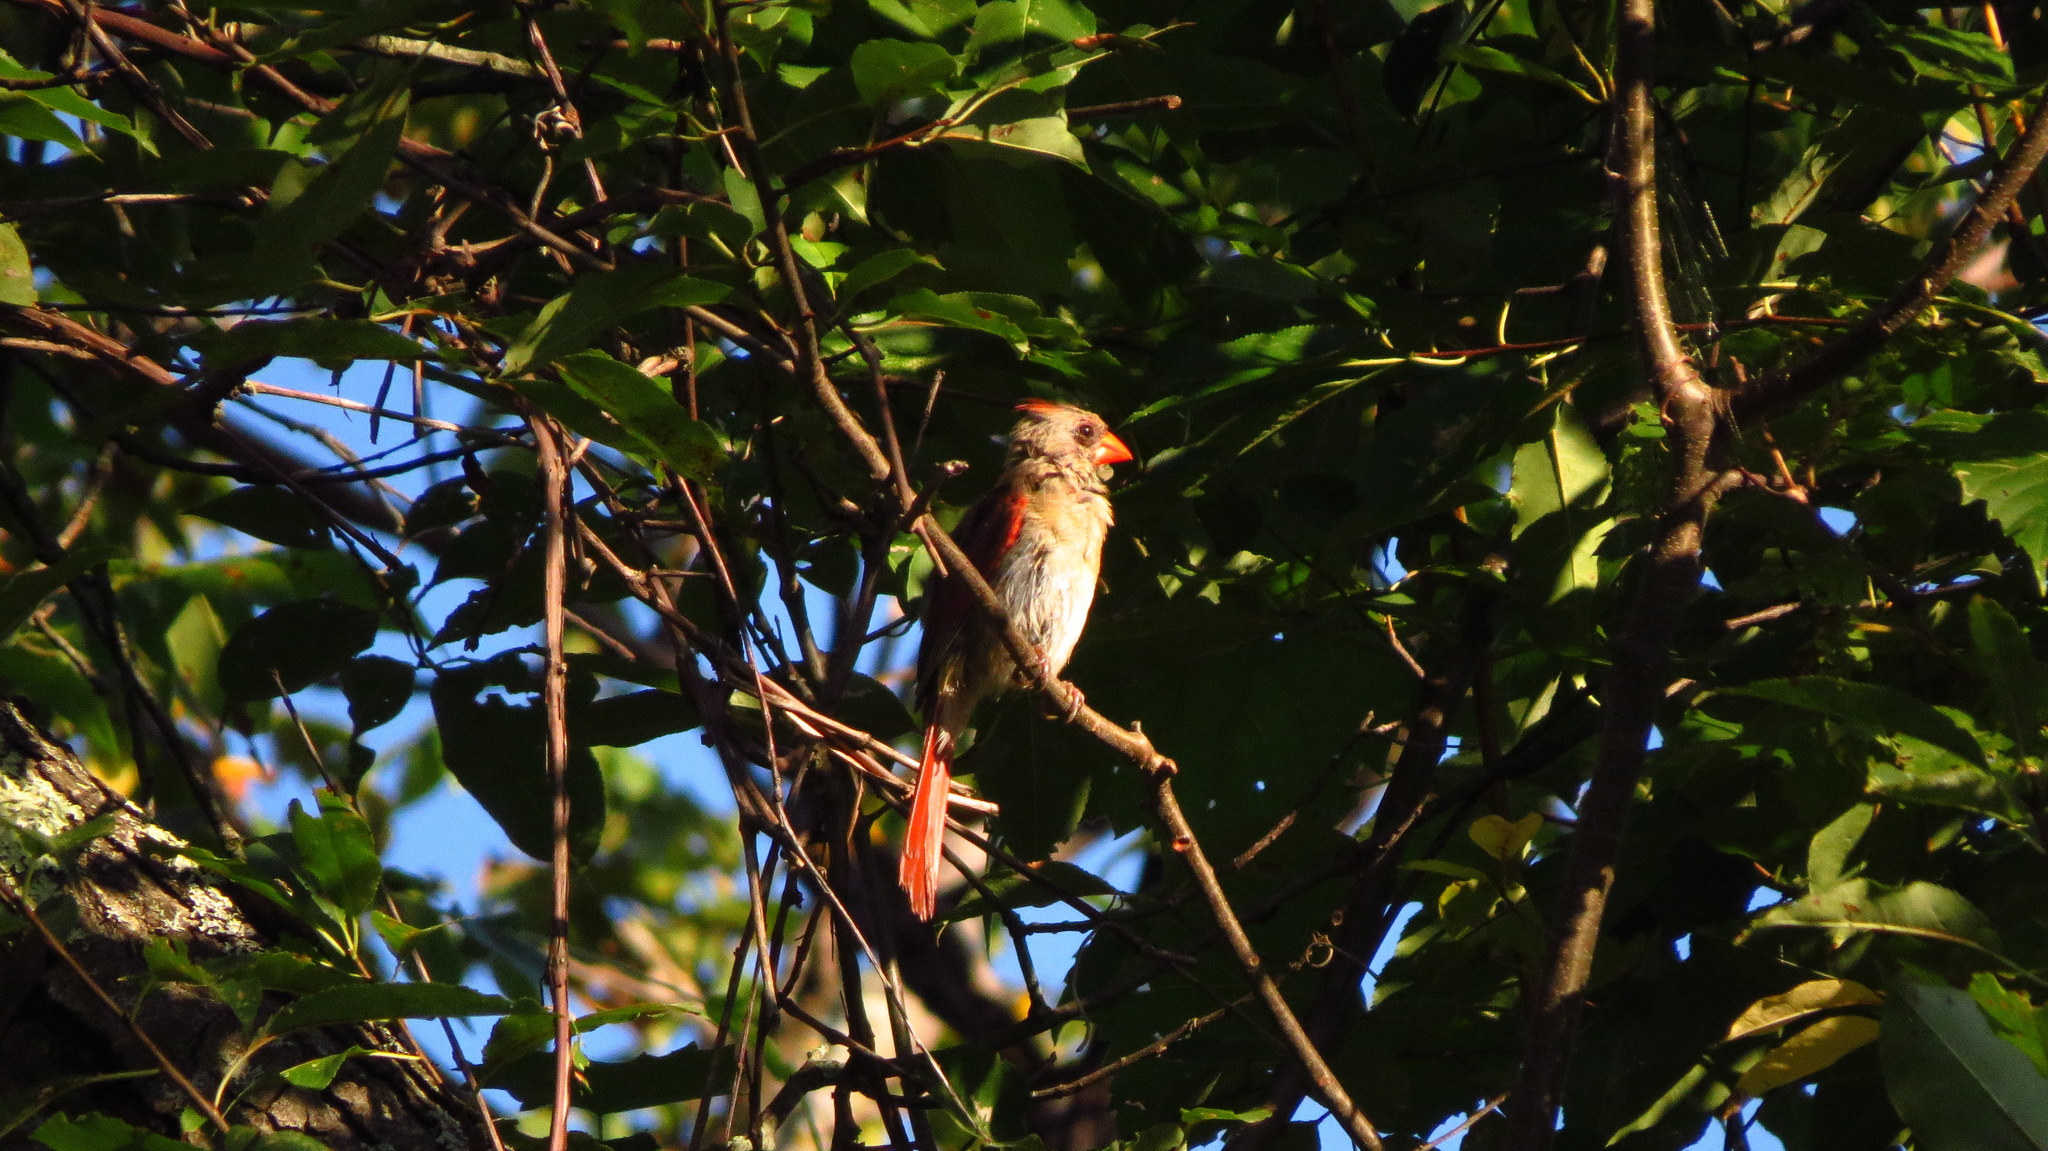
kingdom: Animalia
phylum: Chordata
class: Aves
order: Passeriformes
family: Cardinalidae
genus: Cardinalis
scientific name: Cardinalis cardinalis
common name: Northern cardinal
